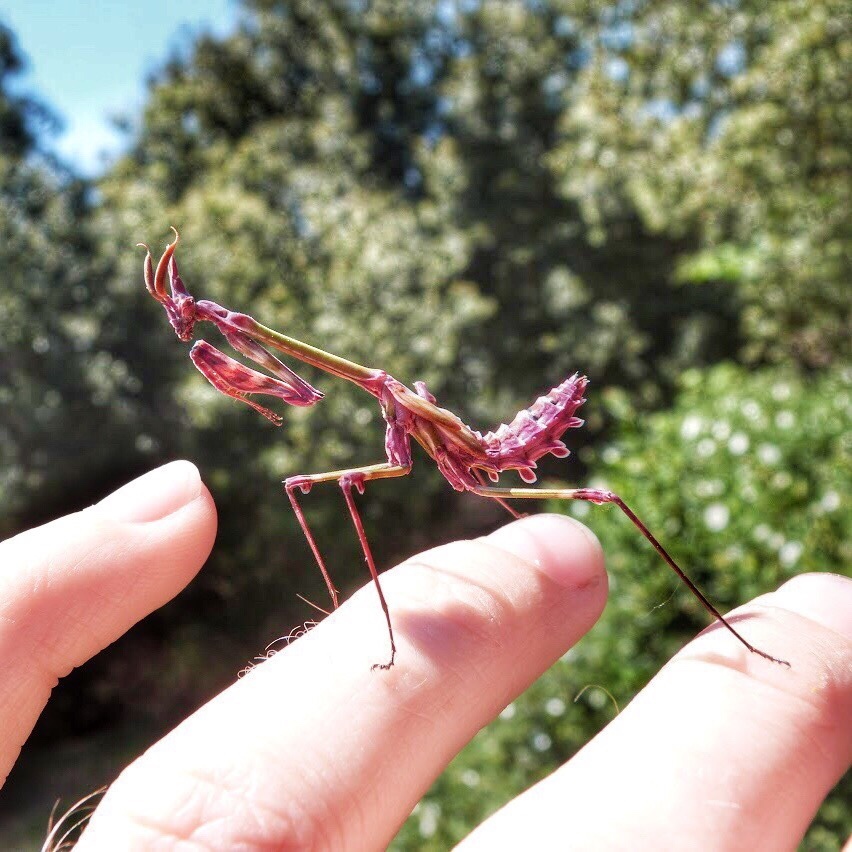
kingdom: Animalia
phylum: Arthropoda
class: Insecta
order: Mantodea
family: Empusidae
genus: Empusa
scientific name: Empusa pennata
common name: Conehead mantis
